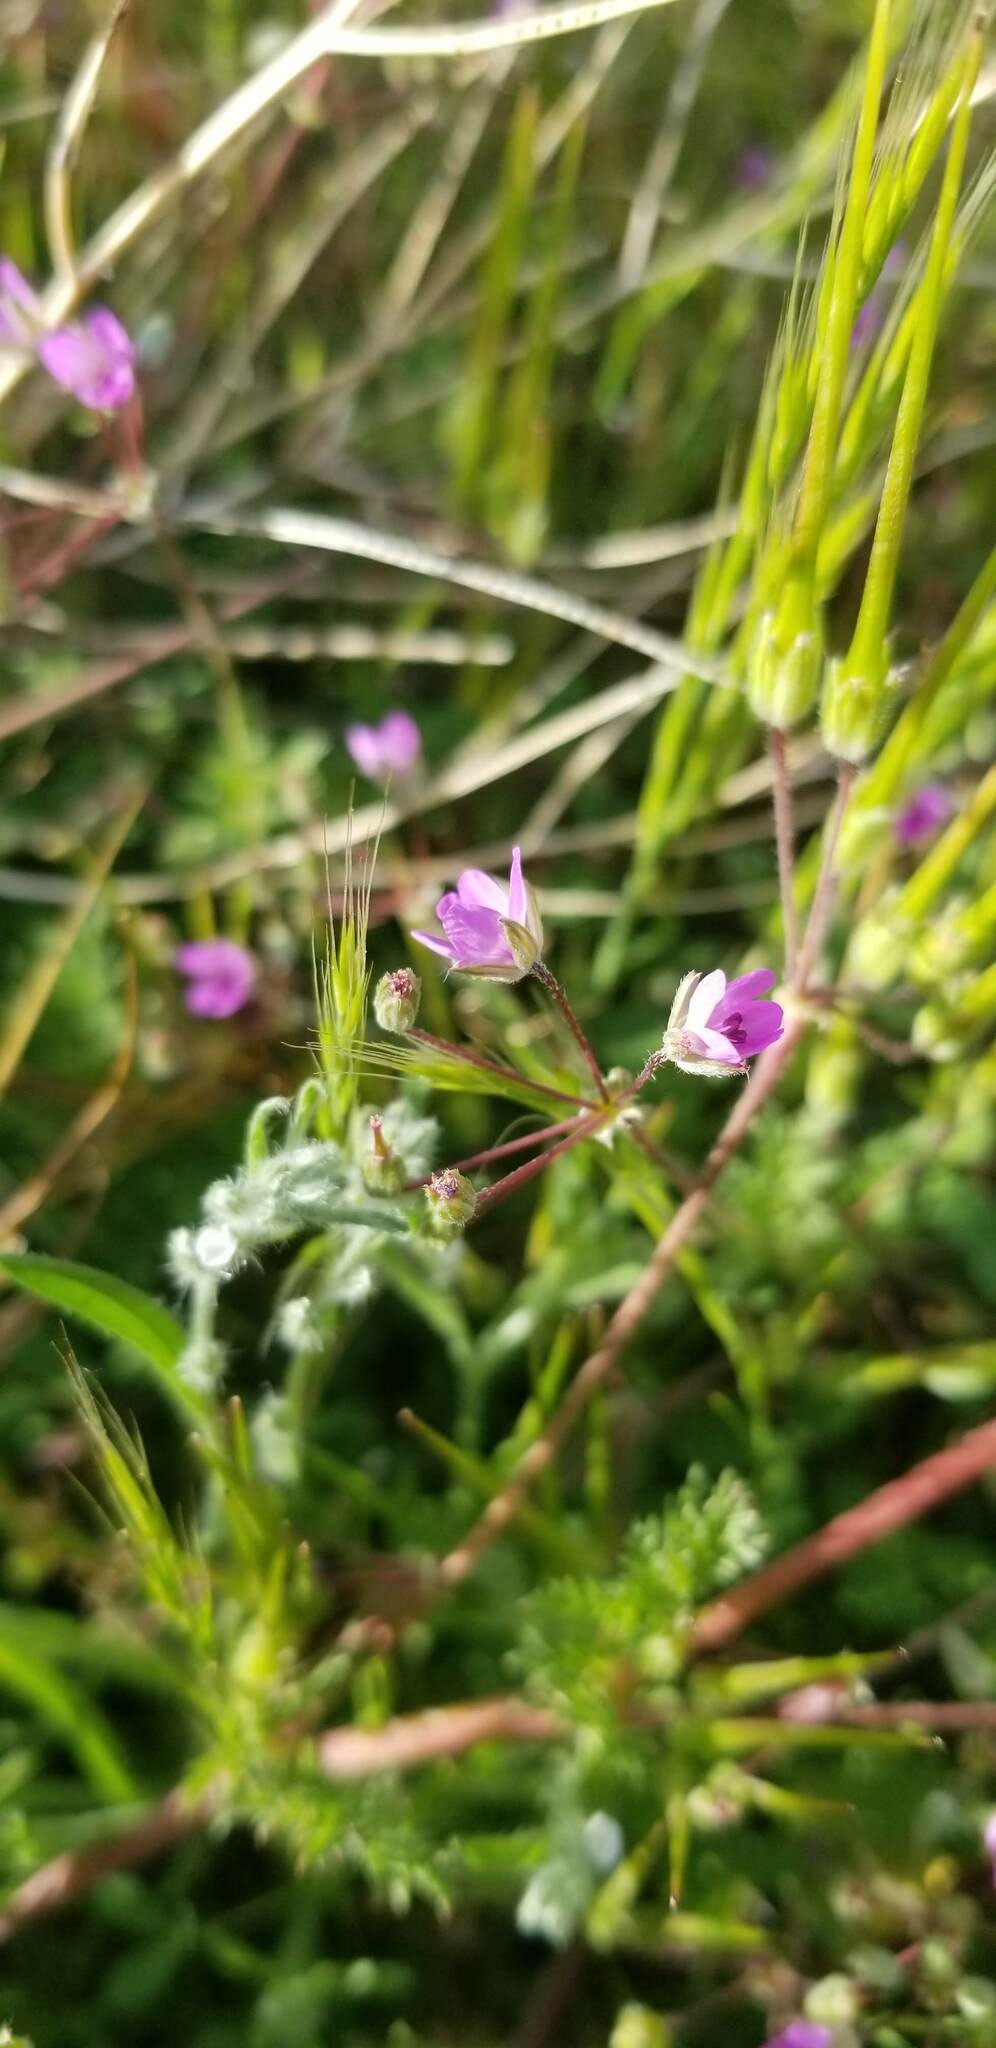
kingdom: Plantae
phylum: Tracheophyta
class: Magnoliopsida
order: Geraniales
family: Geraniaceae
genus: Erodium
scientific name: Erodium cicutarium
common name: Common stork's-bill
